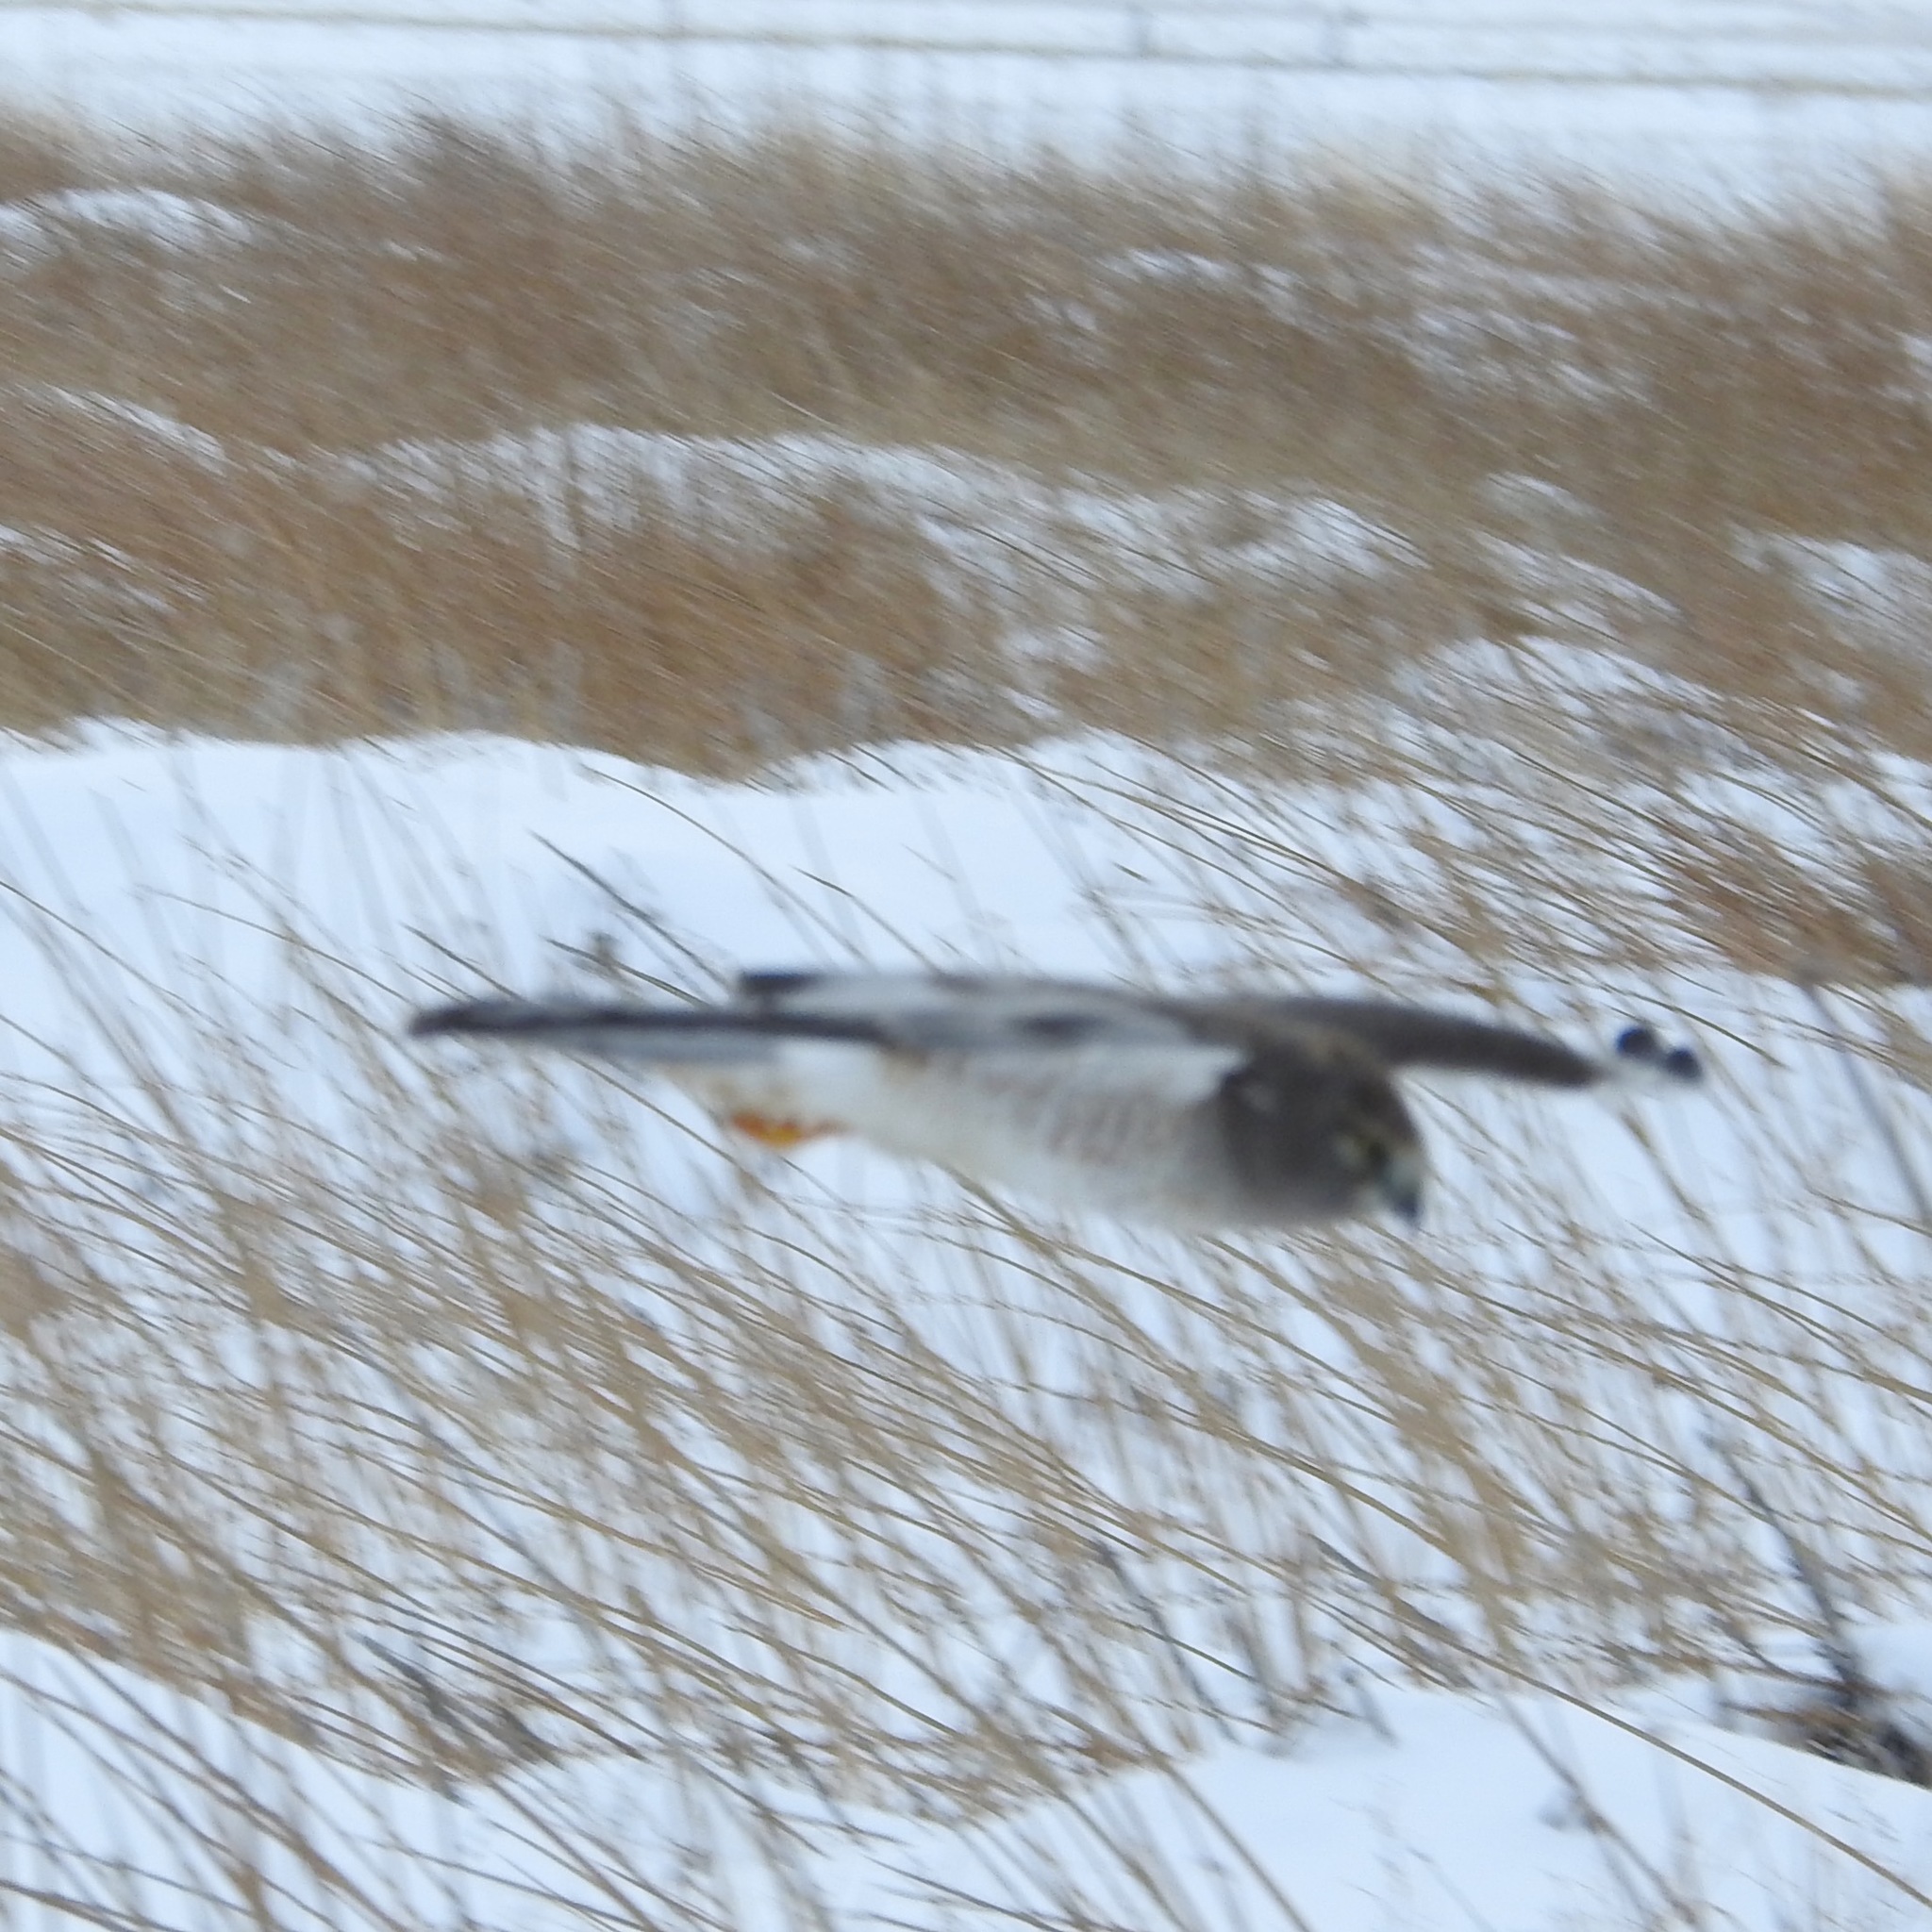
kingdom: Animalia
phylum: Chordata
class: Aves
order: Accipitriformes
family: Accipitridae
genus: Circus
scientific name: Circus cyaneus
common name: Hen harrier
